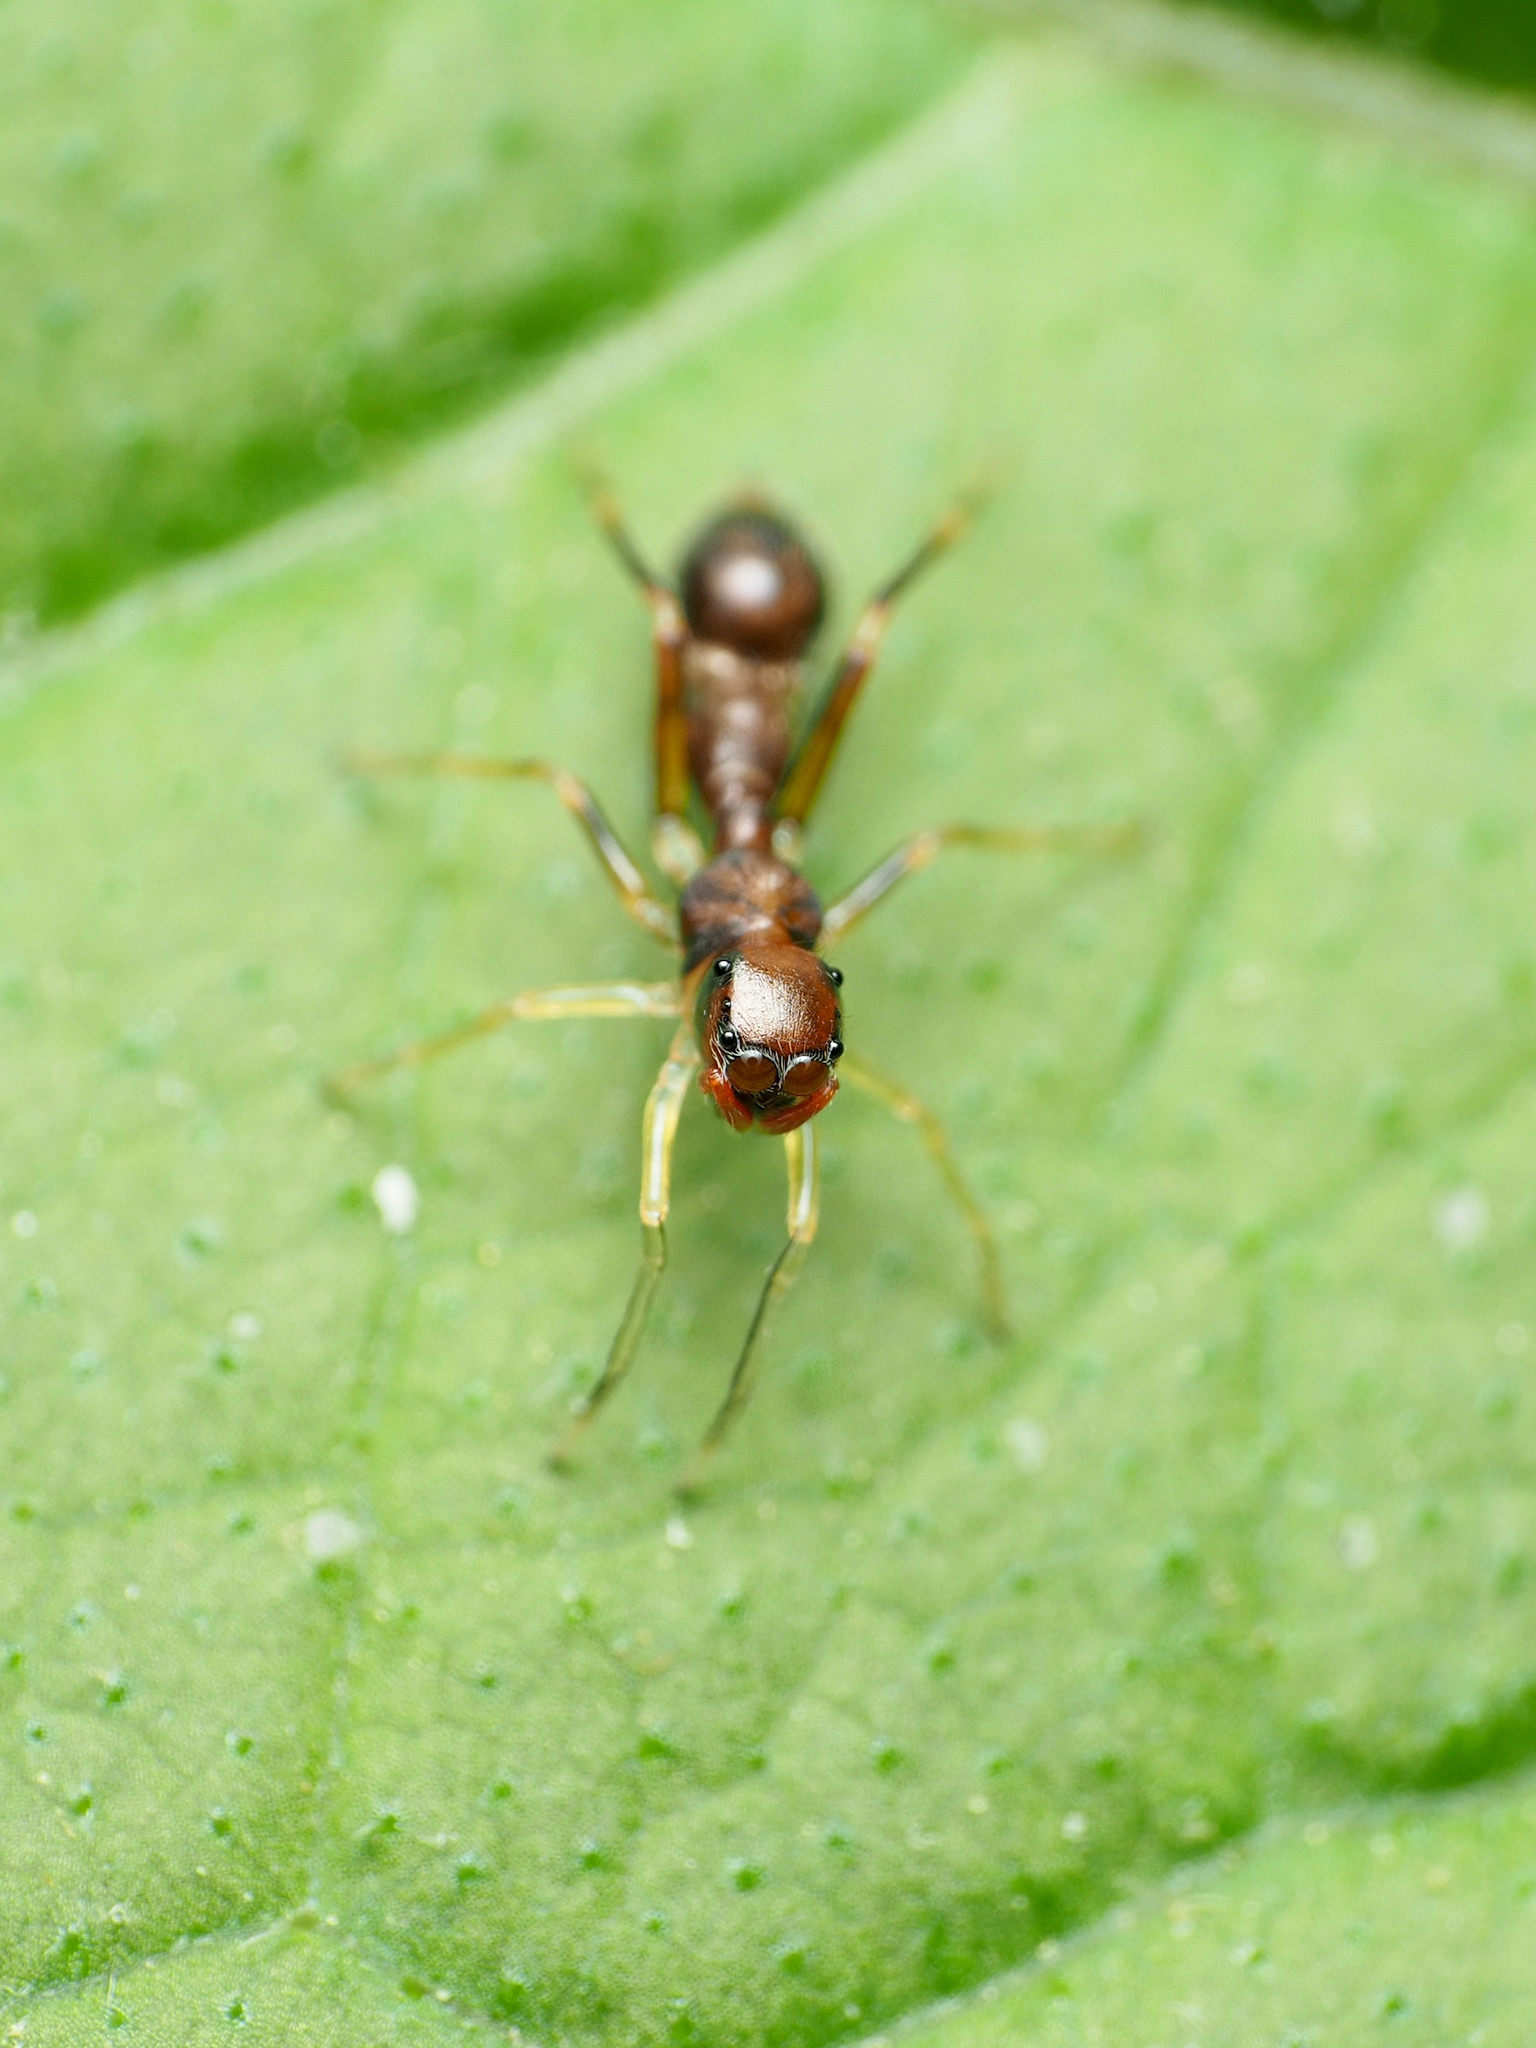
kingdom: Animalia
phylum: Arthropoda
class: Arachnida
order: Araneae
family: Salticidae
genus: Synemosyna
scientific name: Synemosyna formica
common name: Slender ant-mimic jumping spider
